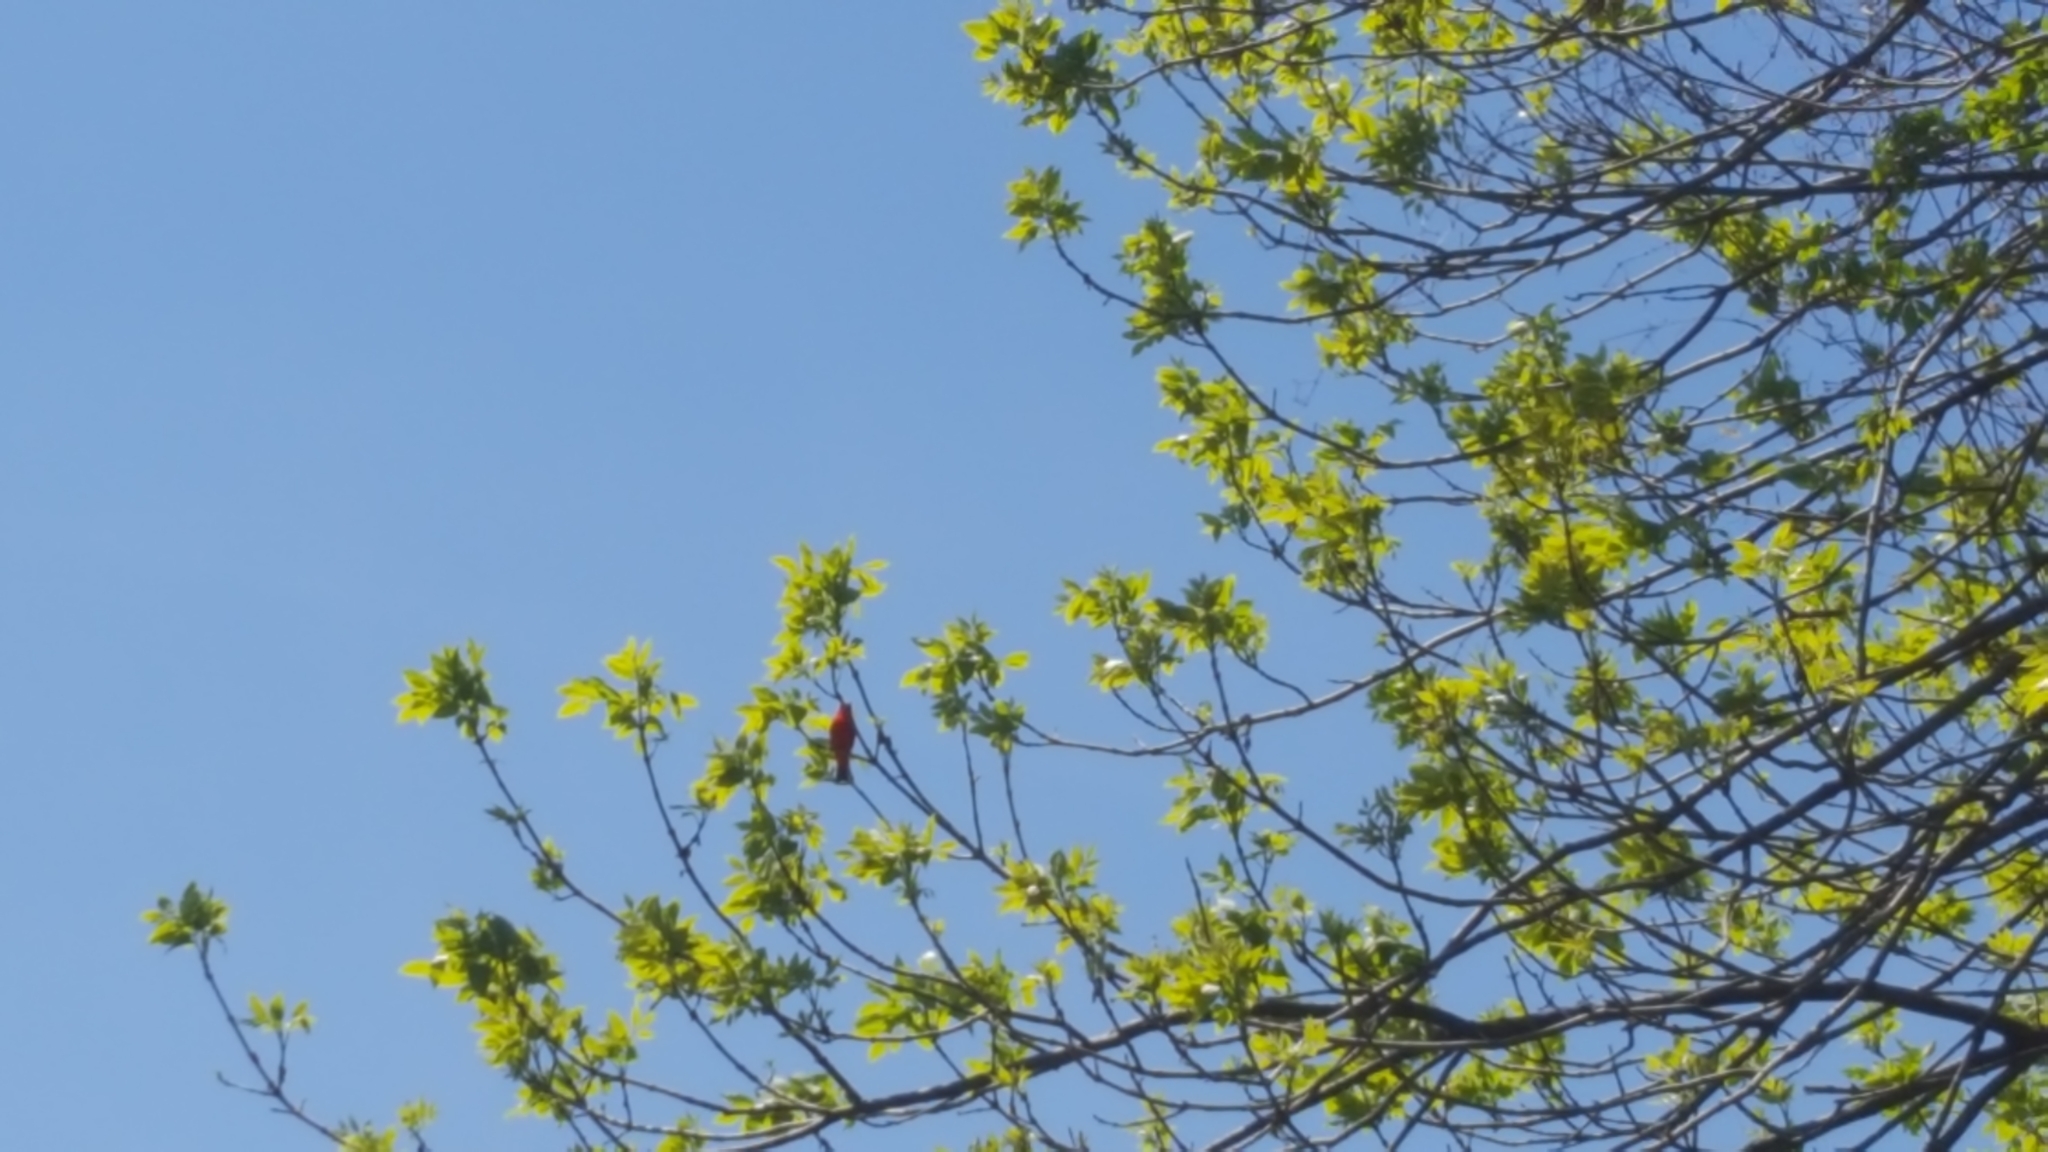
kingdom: Animalia
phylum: Chordata
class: Aves
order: Passeriformes
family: Cardinalidae
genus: Piranga
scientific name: Piranga olivacea
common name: Scarlet tanager
